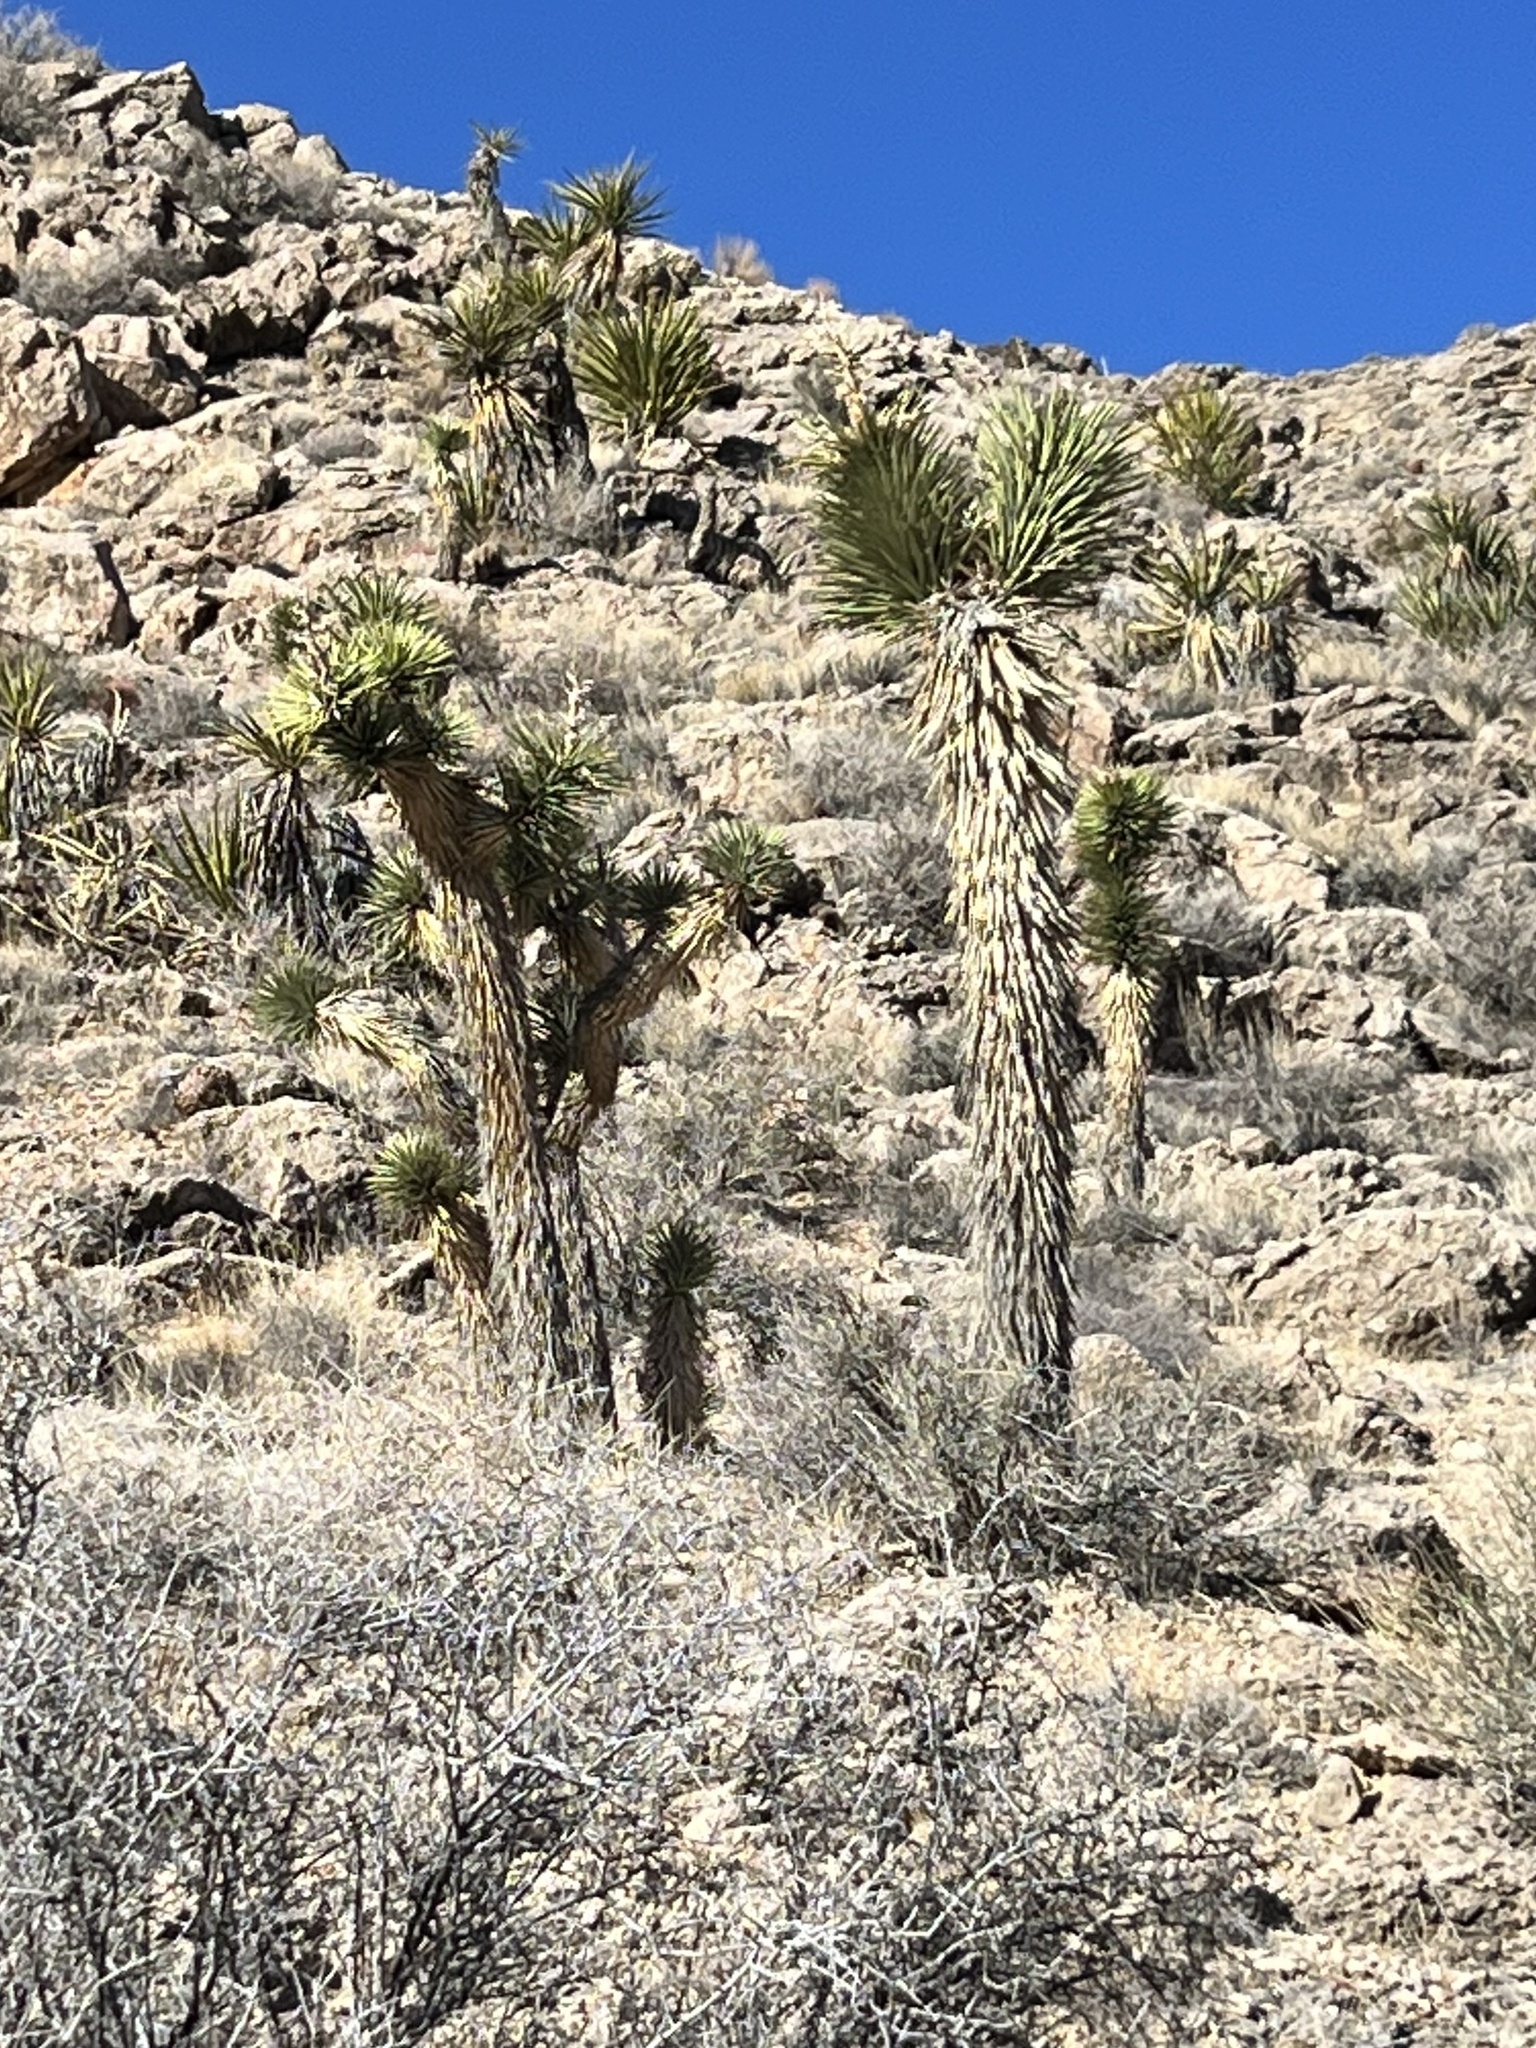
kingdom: Plantae
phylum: Tracheophyta
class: Liliopsida
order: Asparagales
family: Asparagaceae
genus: Yucca
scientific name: Yucca brevifolia
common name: Joshua tree
